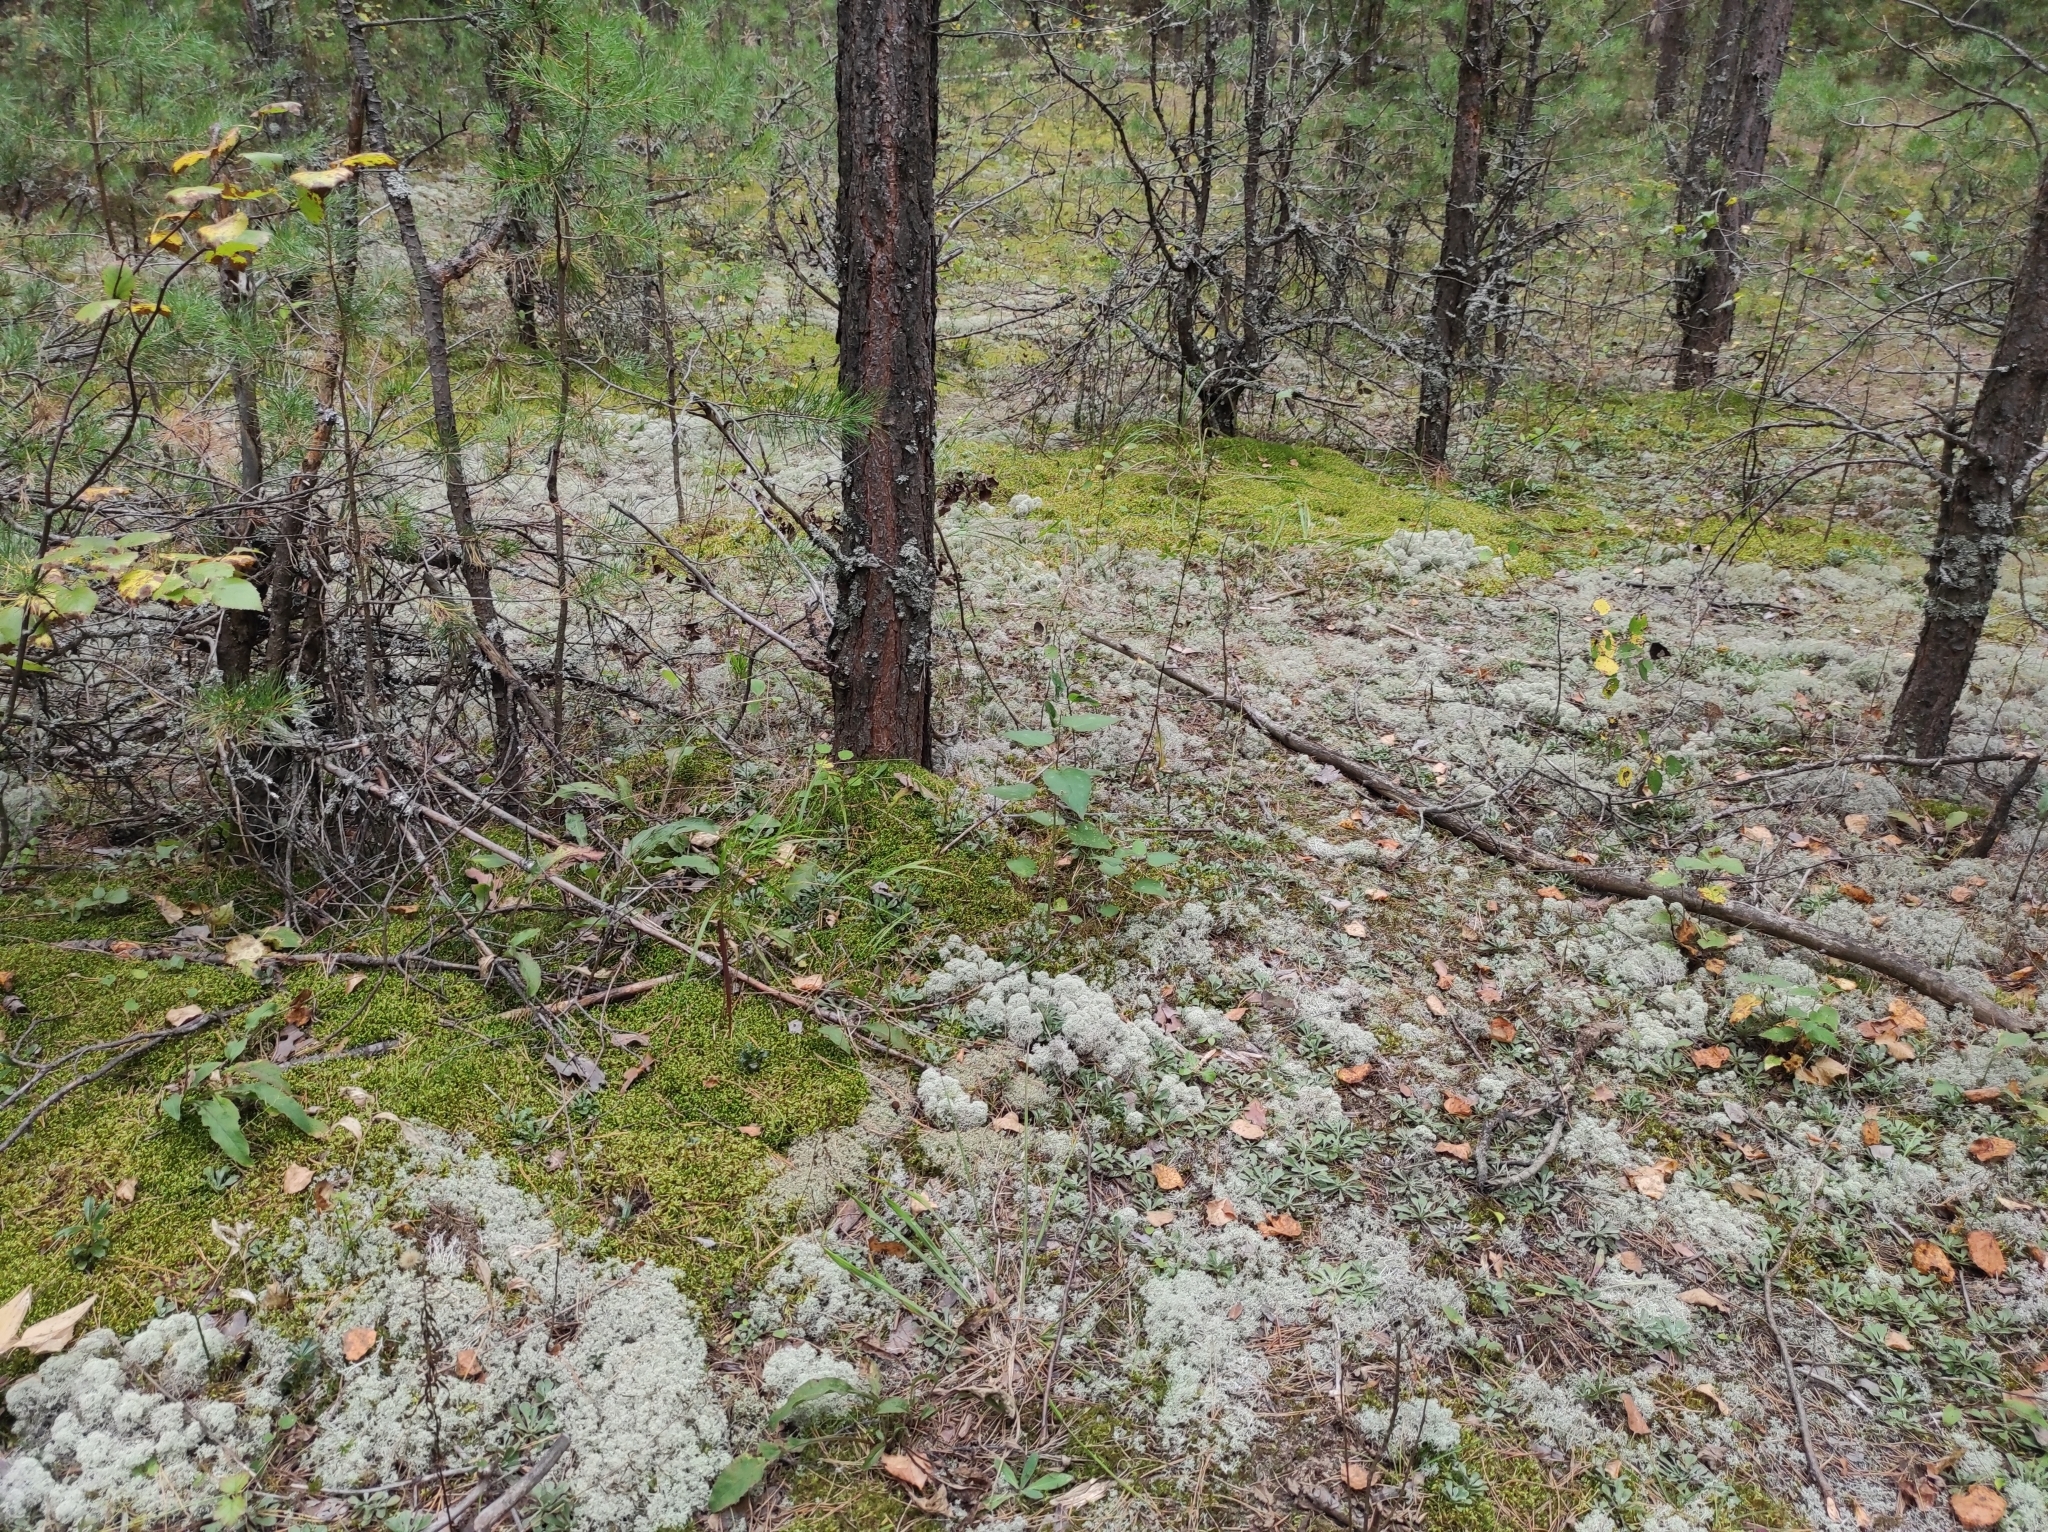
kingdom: Plantae
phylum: Tracheophyta
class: Pinopsida
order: Pinales
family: Pinaceae
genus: Pinus
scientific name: Pinus sylvestris
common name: Scots pine
